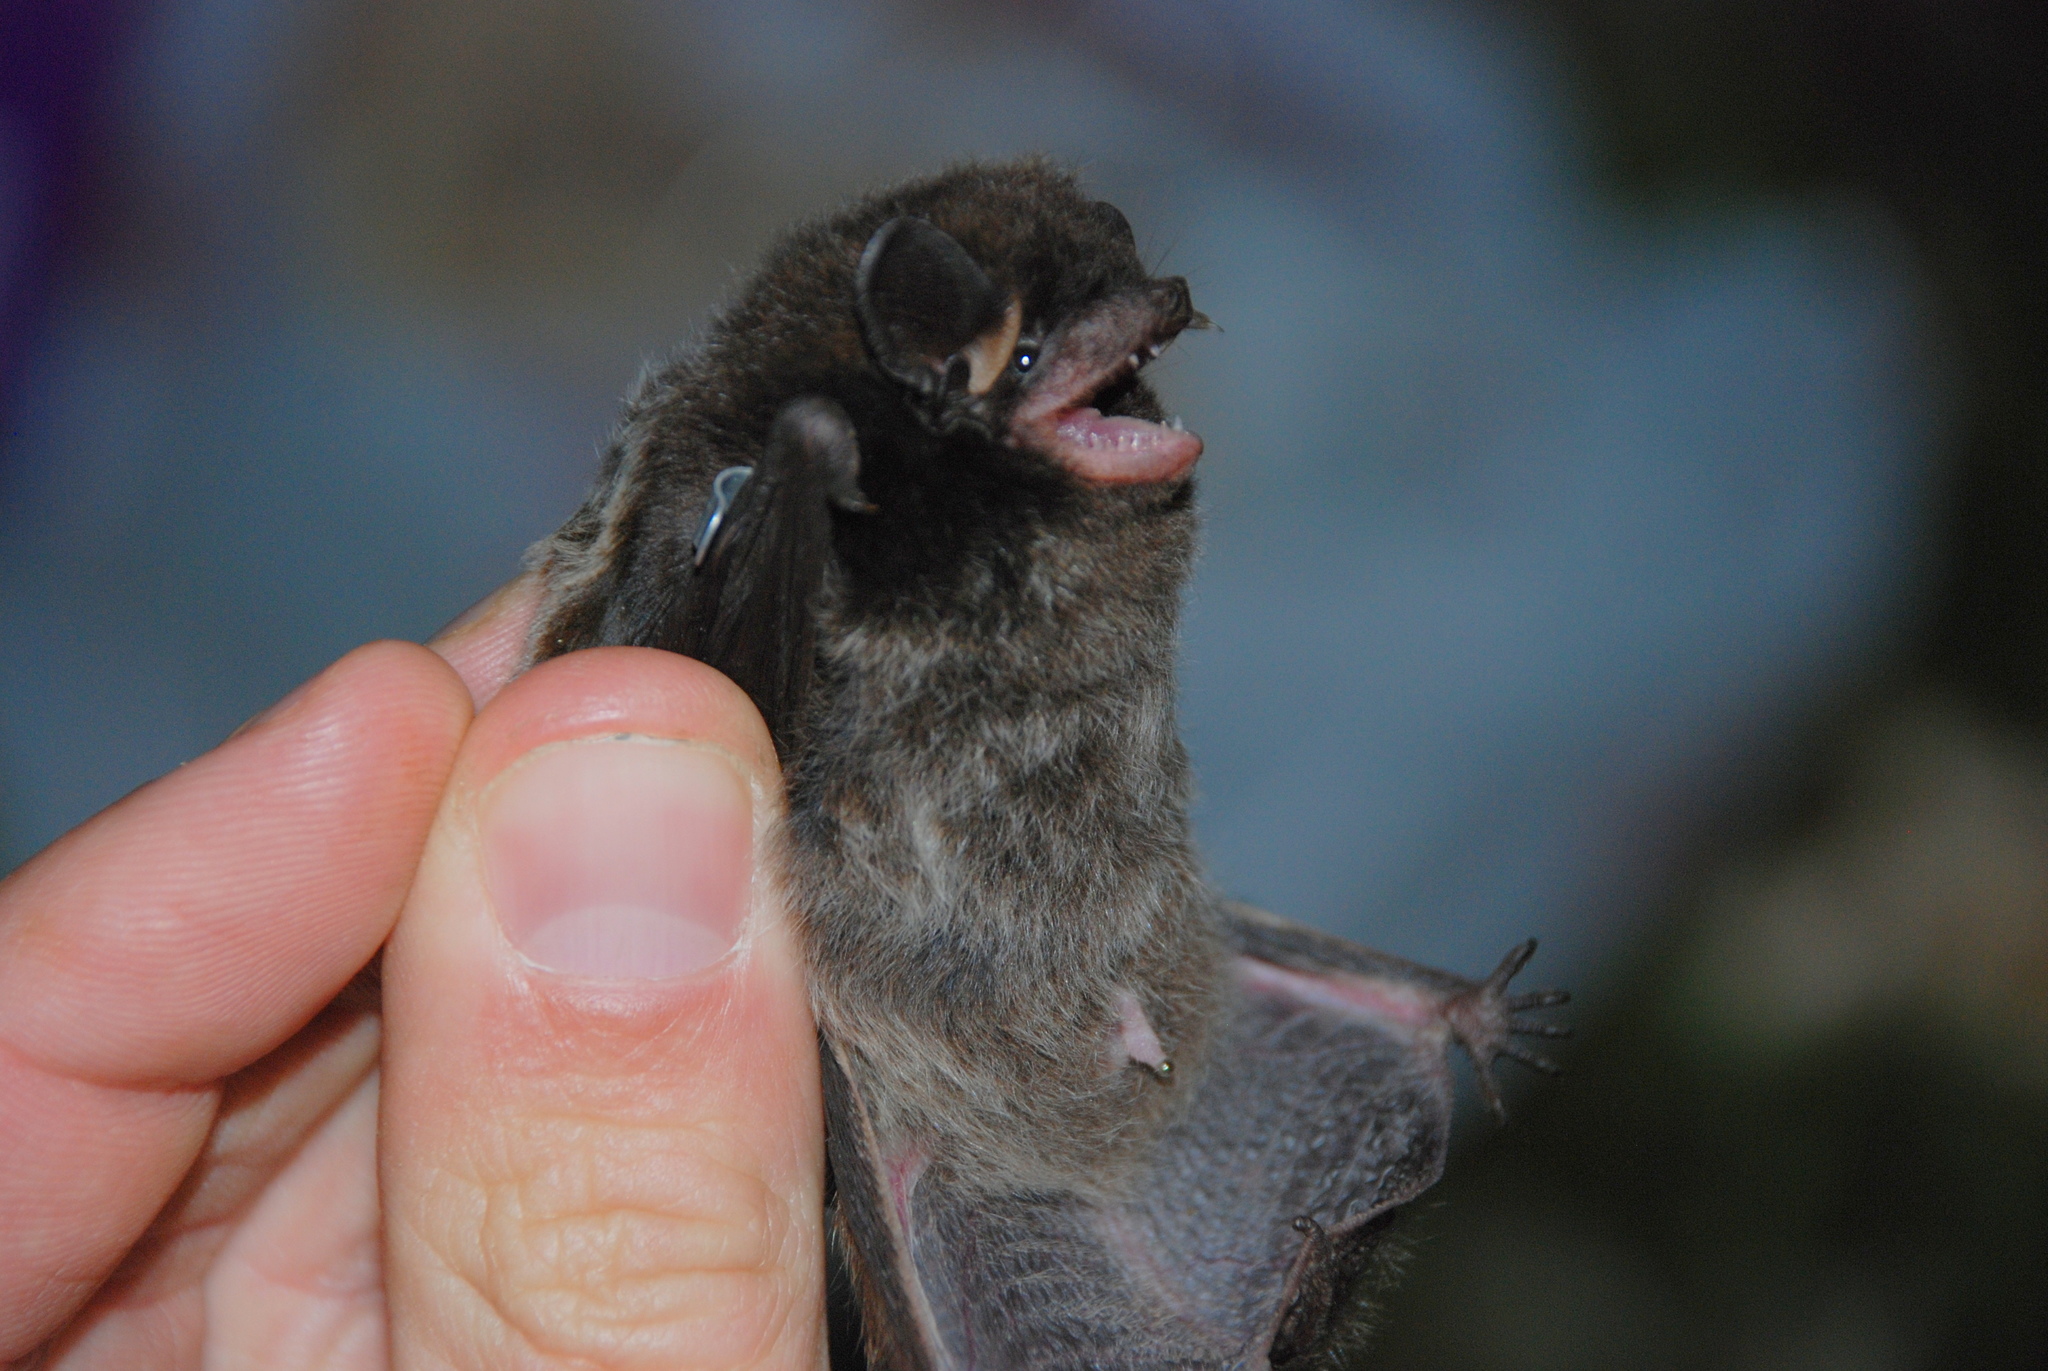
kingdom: Animalia
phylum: Chordata
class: Mammalia
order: Chiroptera
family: Vespertilionidae
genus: Lasionycteris
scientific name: Lasionycteris noctivagans
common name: Silver-haired bat
